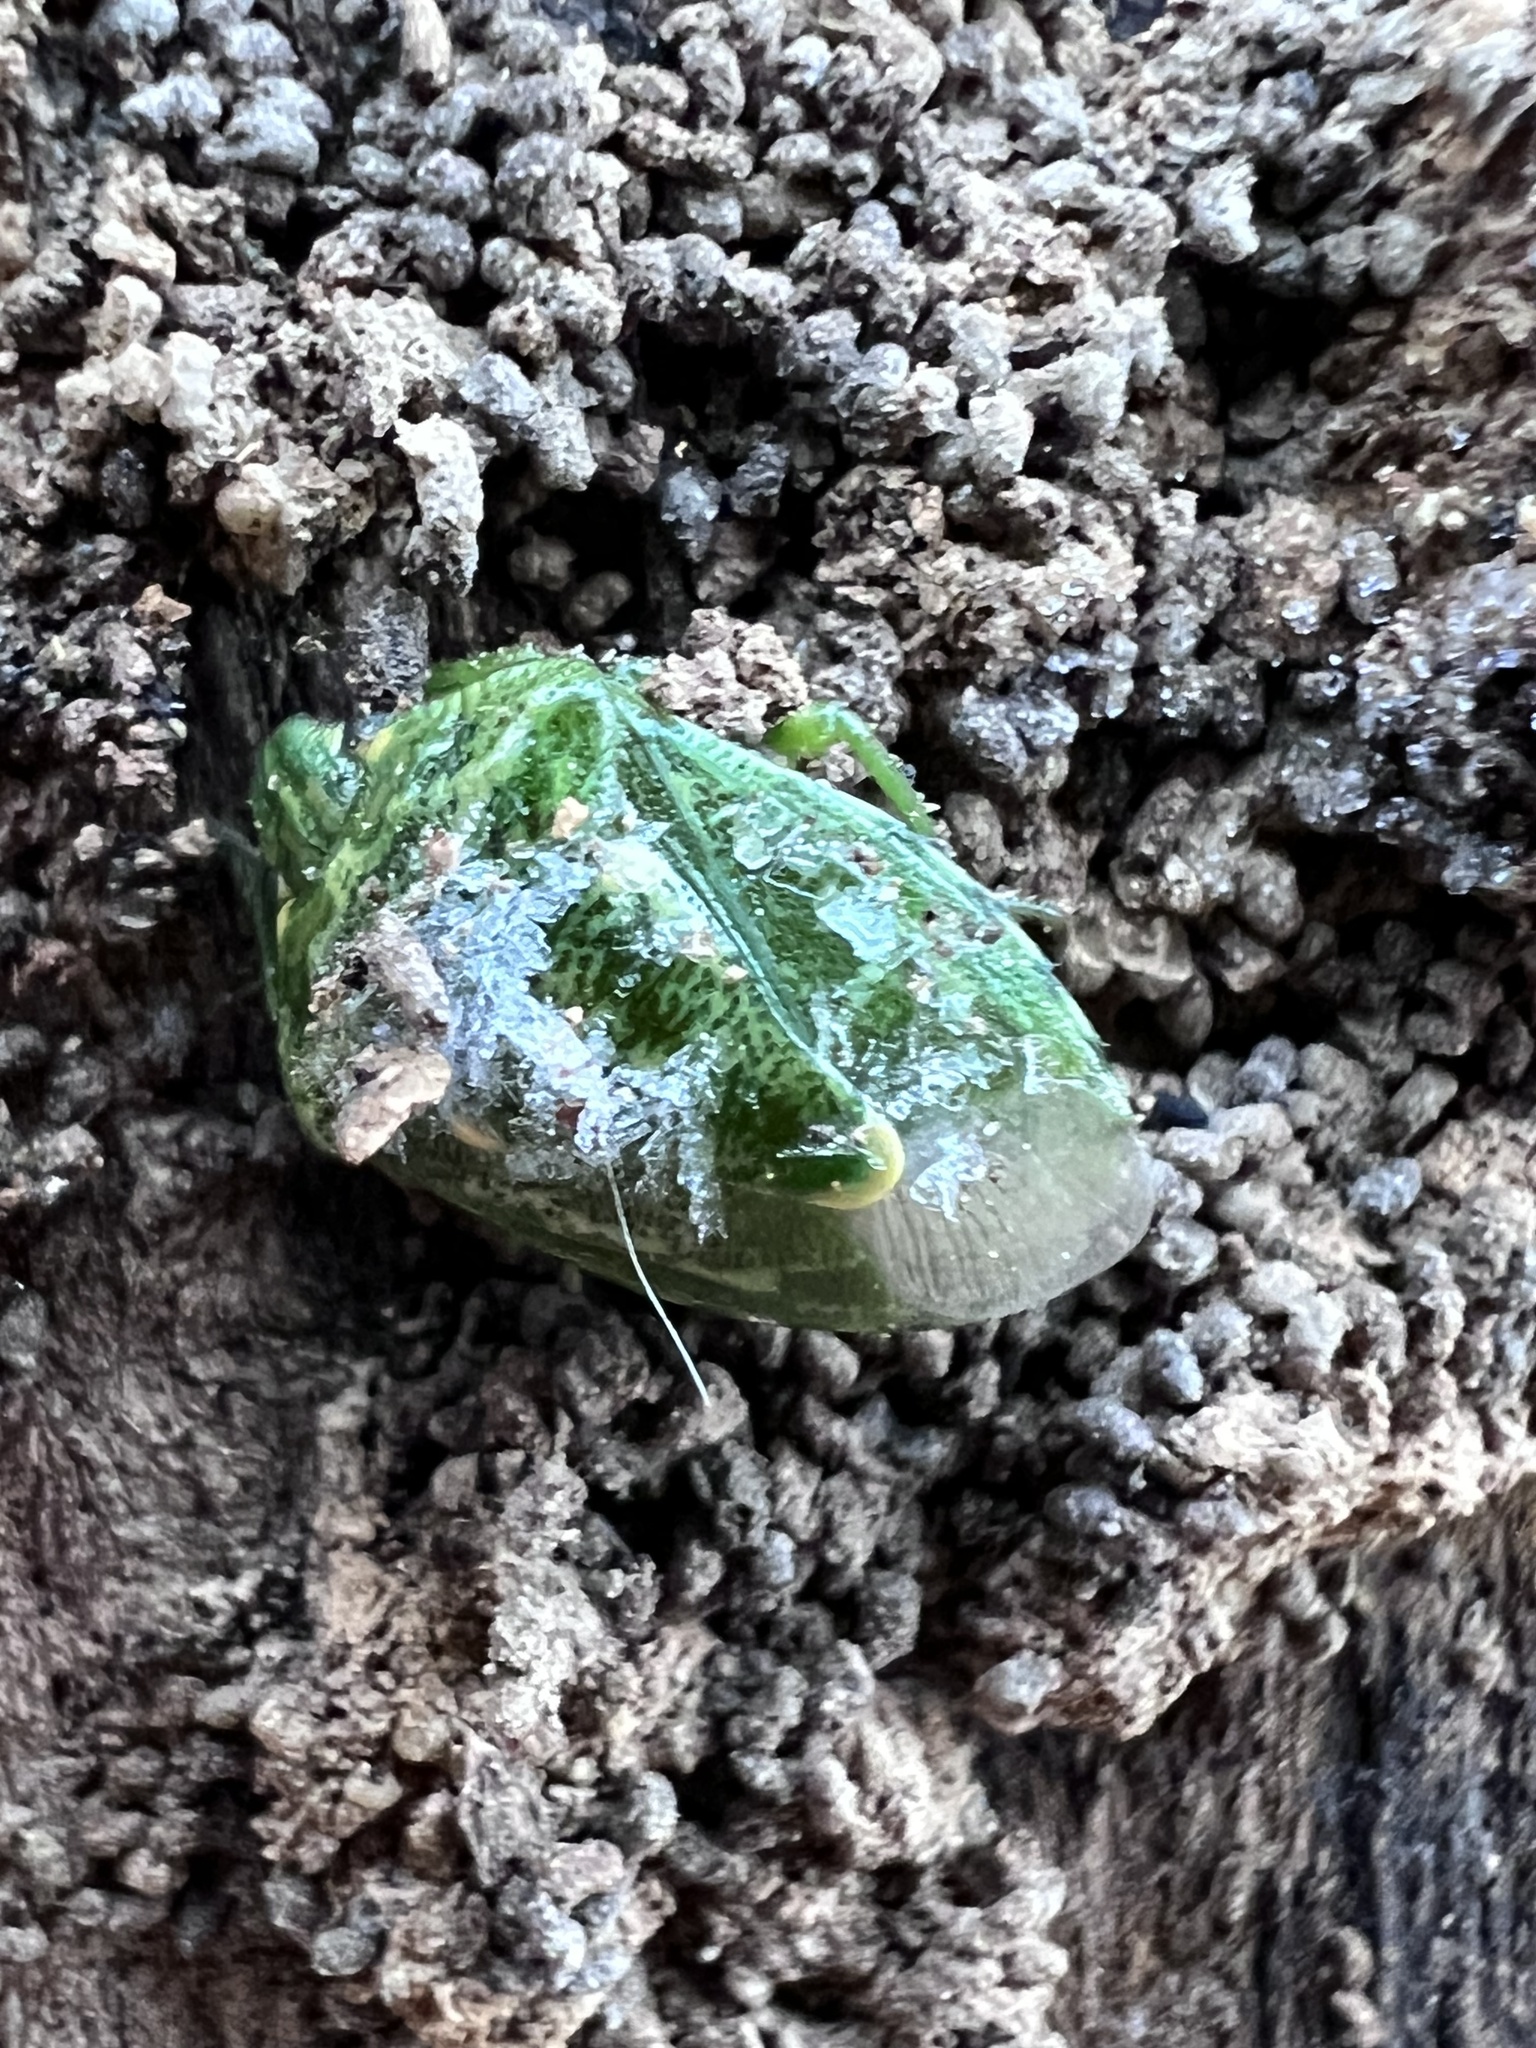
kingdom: Animalia
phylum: Arthropoda
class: Insecta
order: Hemiptera
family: Pentatomidae
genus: Banasa
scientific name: Banasa euchlora
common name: Cedar berry bug
